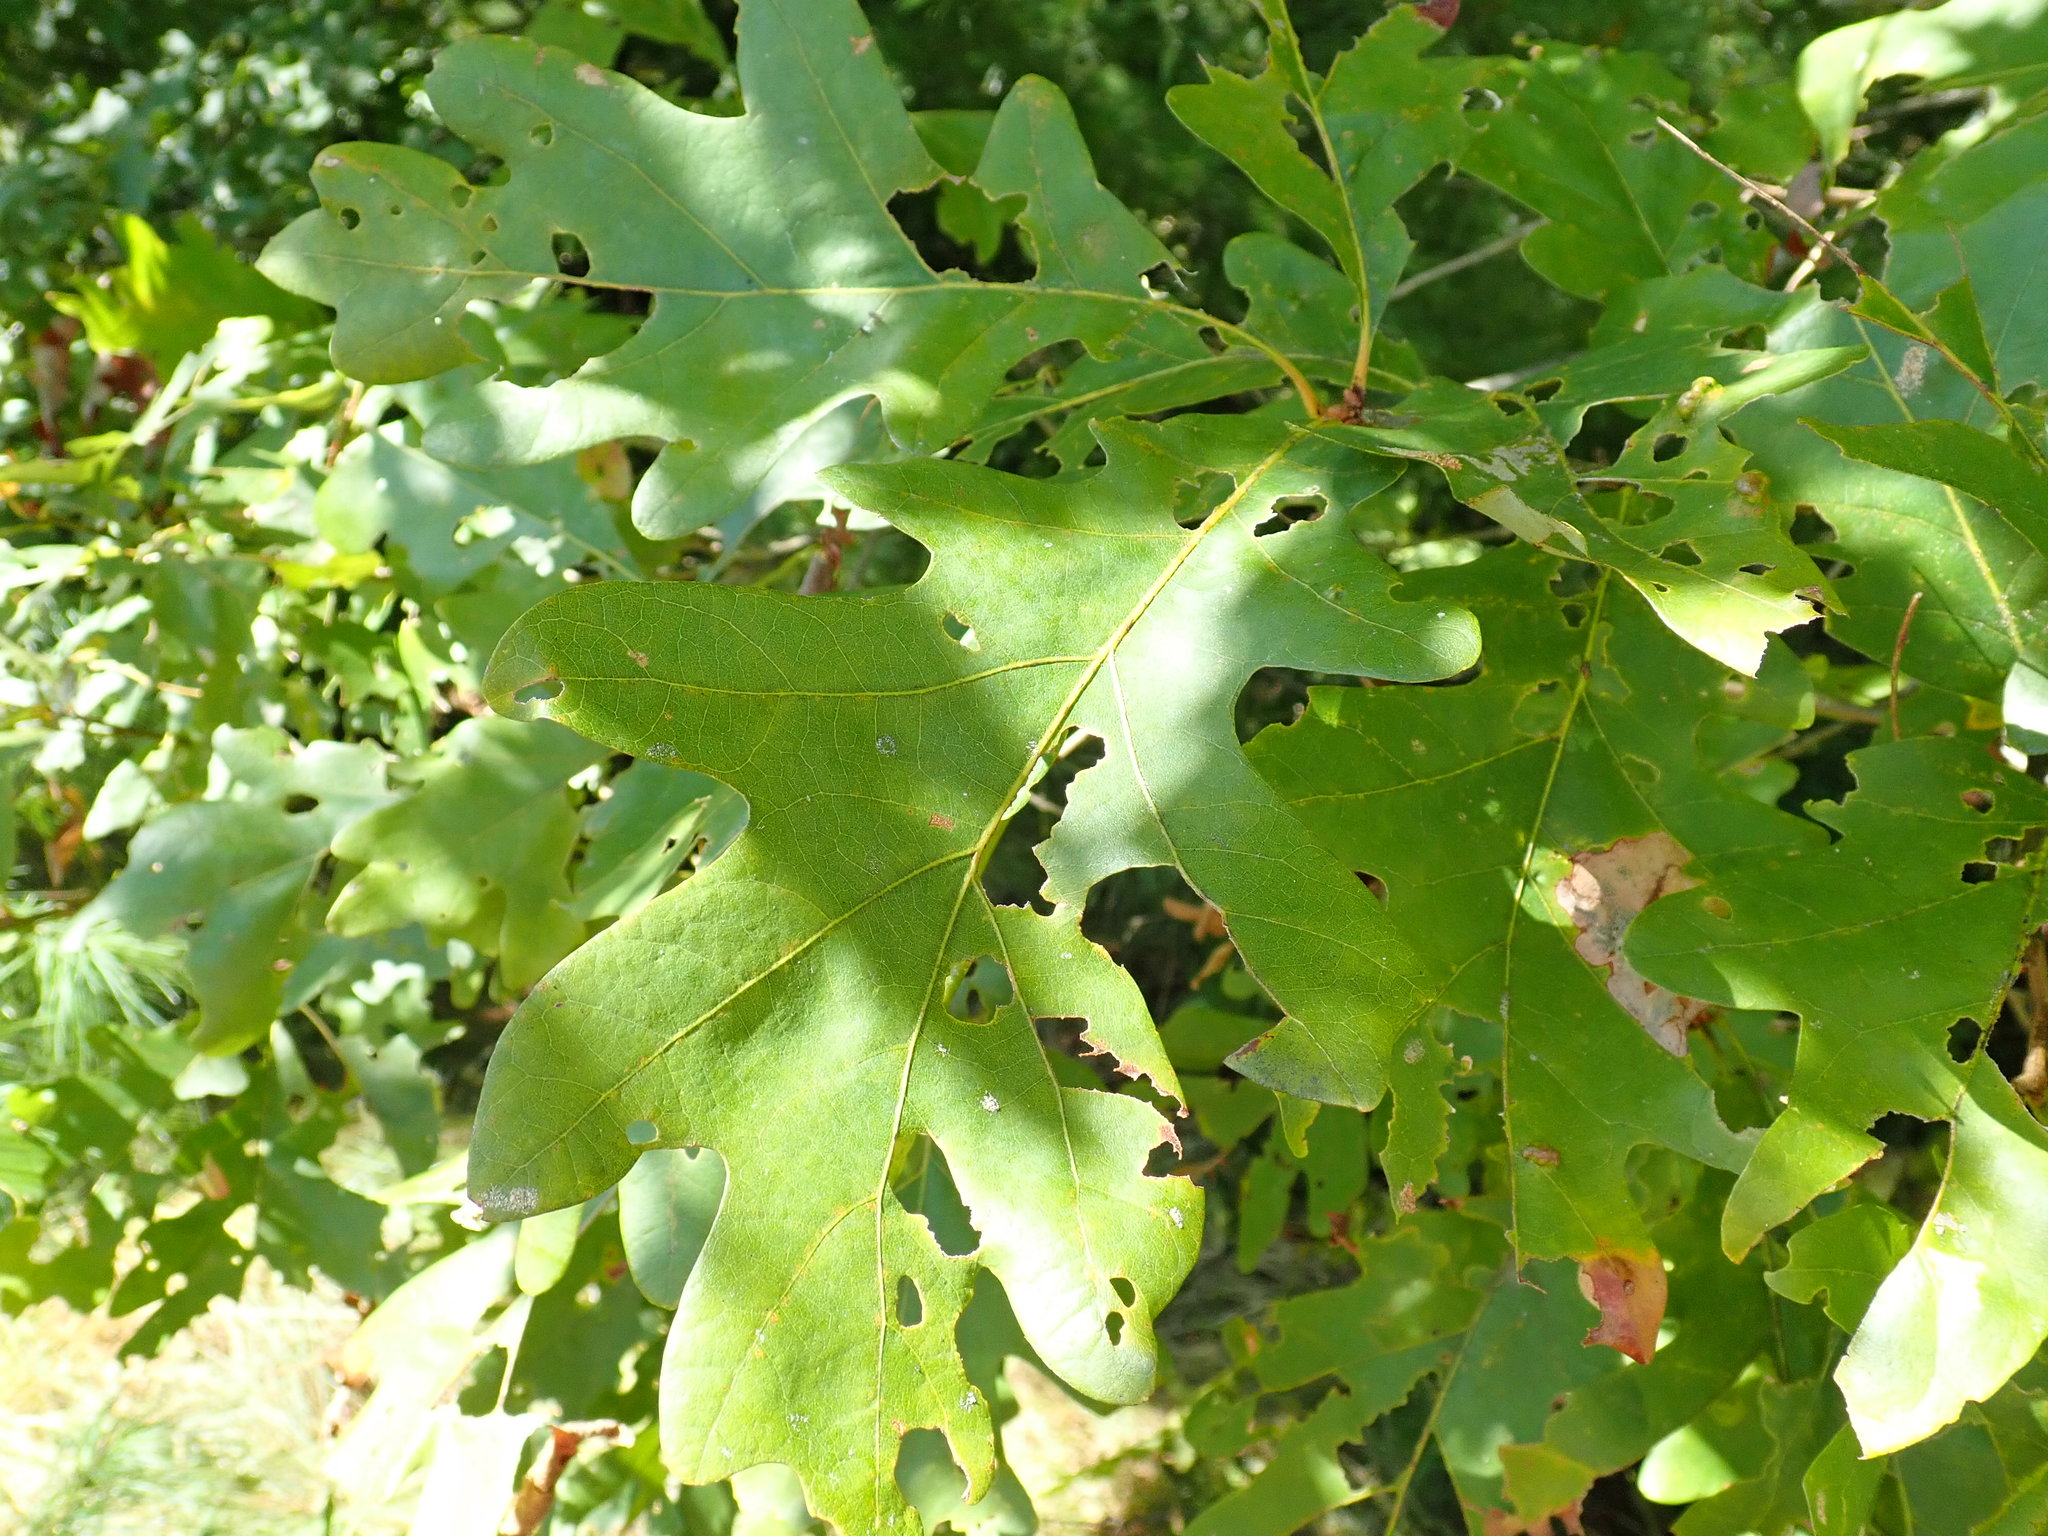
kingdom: Plantae
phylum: Tracheophyta
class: Magnoliopsida
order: Fagales
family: Fagaceae
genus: Quercus
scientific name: Quercus alba
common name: White oak
